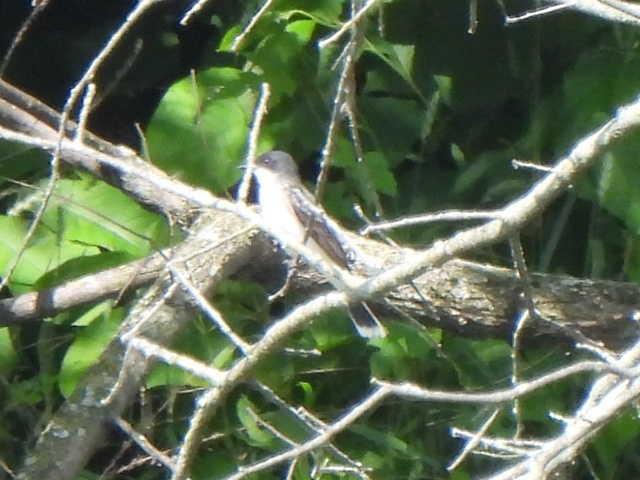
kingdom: Animalia
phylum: Chordata
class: Aves
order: Passeriformes
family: Tyrannidae
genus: Tyrannus
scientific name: Tyrannus tyrannus
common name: Eastern kingbird
